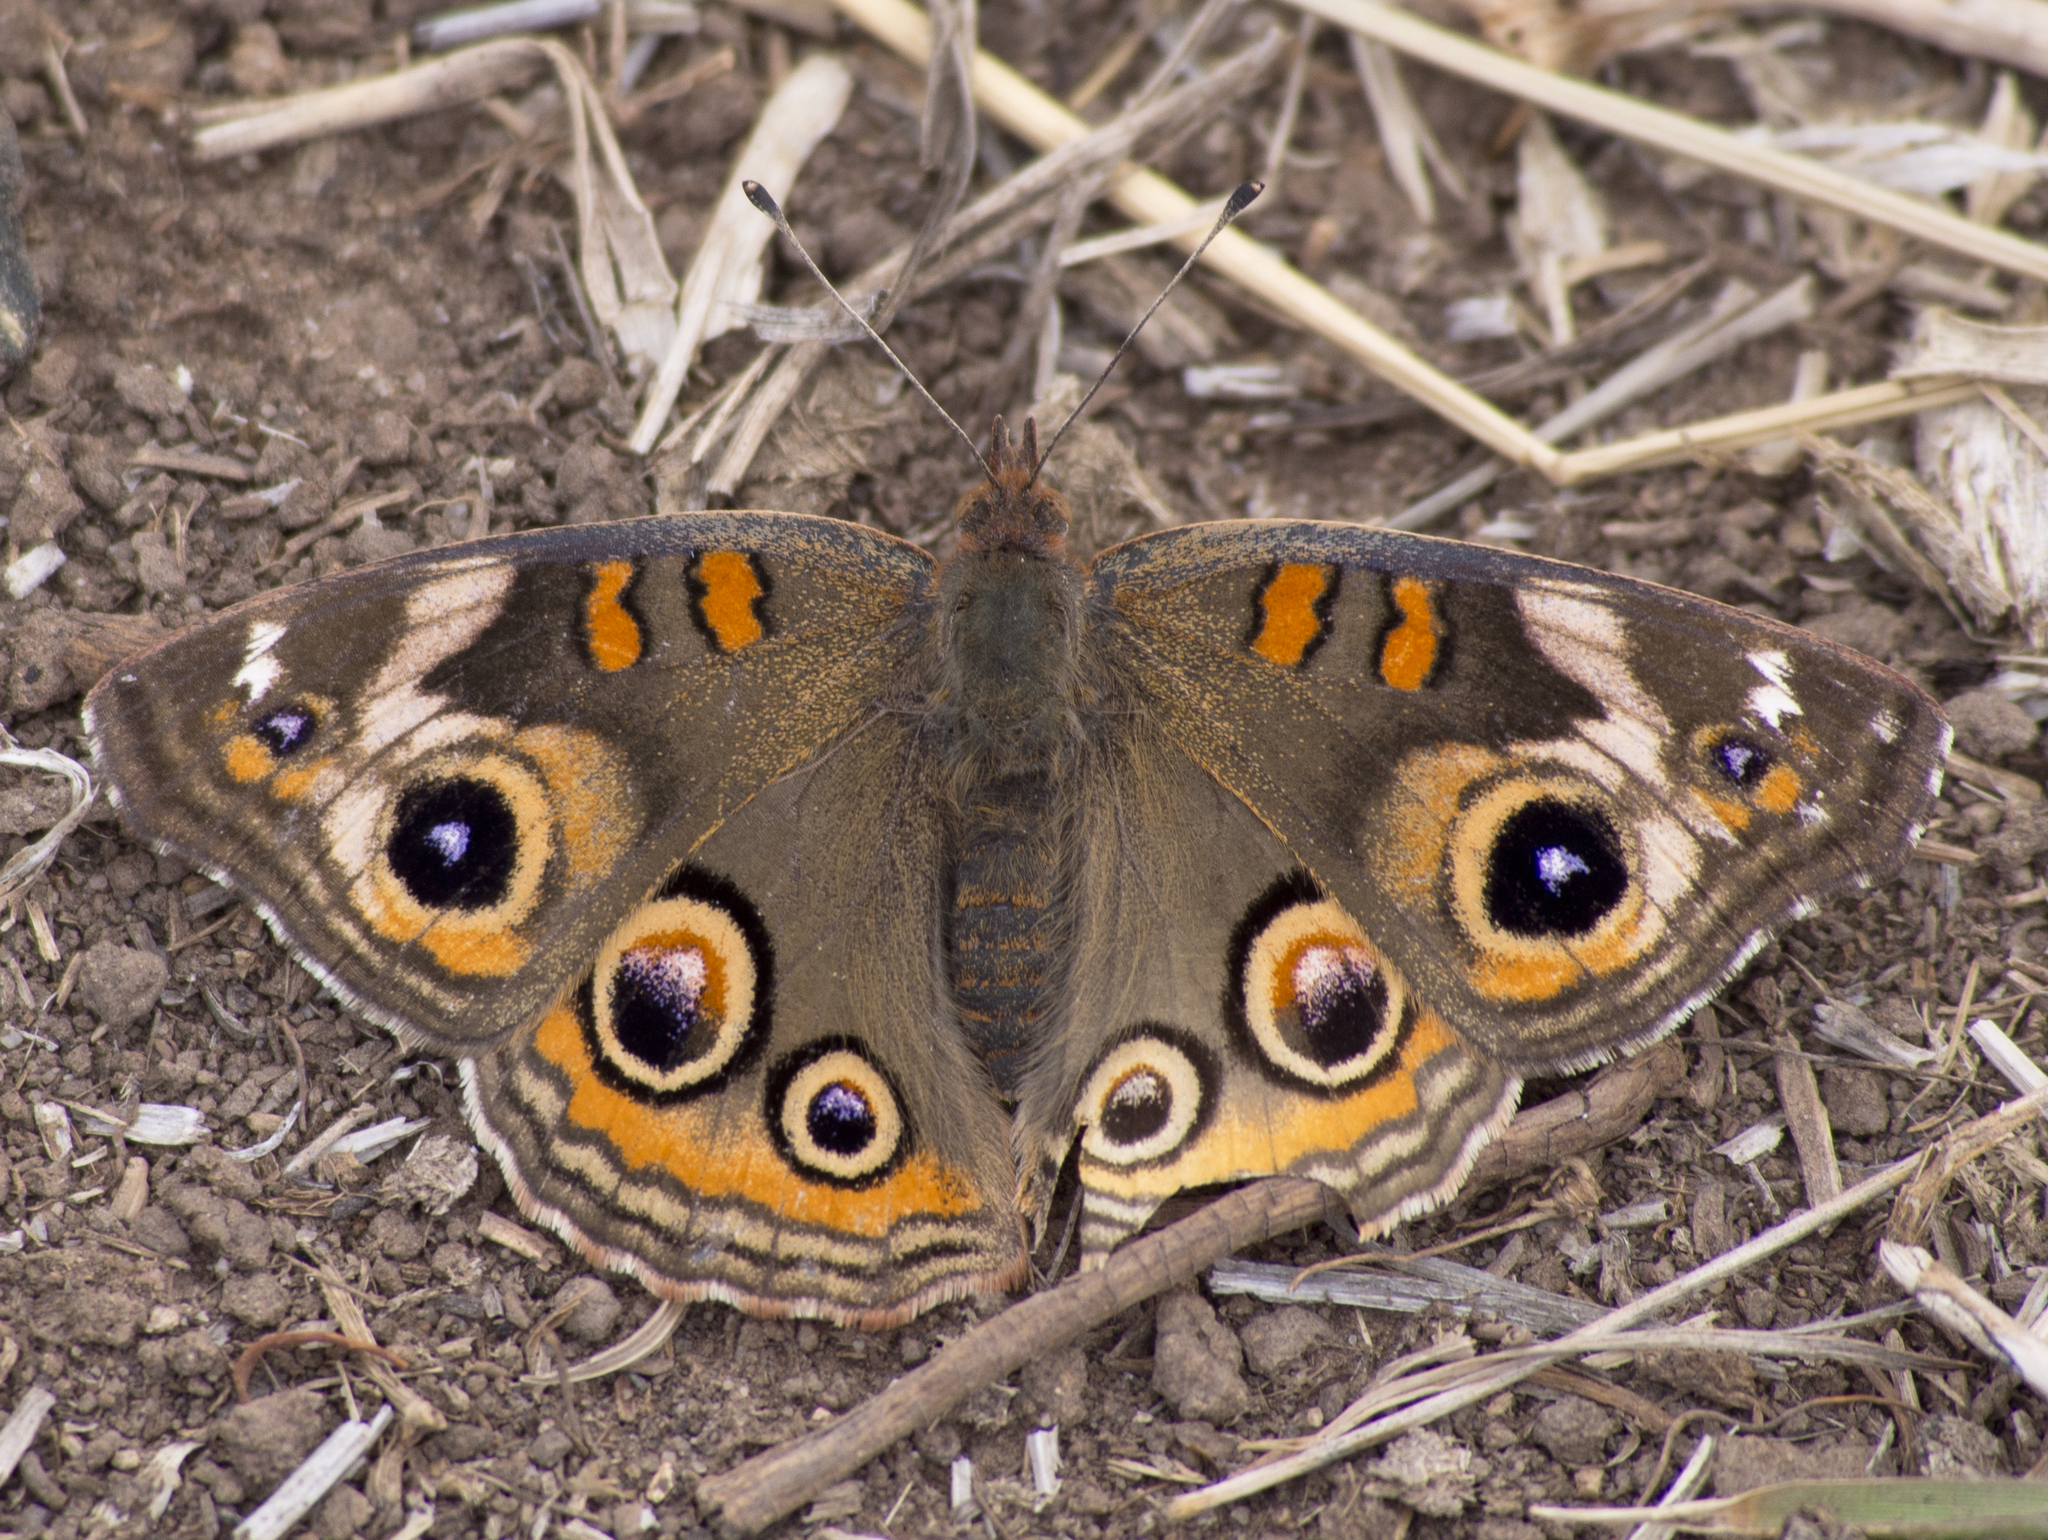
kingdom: Animalia
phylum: Arthropoda
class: Insecta
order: Lepidoptera
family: Nymphalidae
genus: Junonia
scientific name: Junonia grisea
